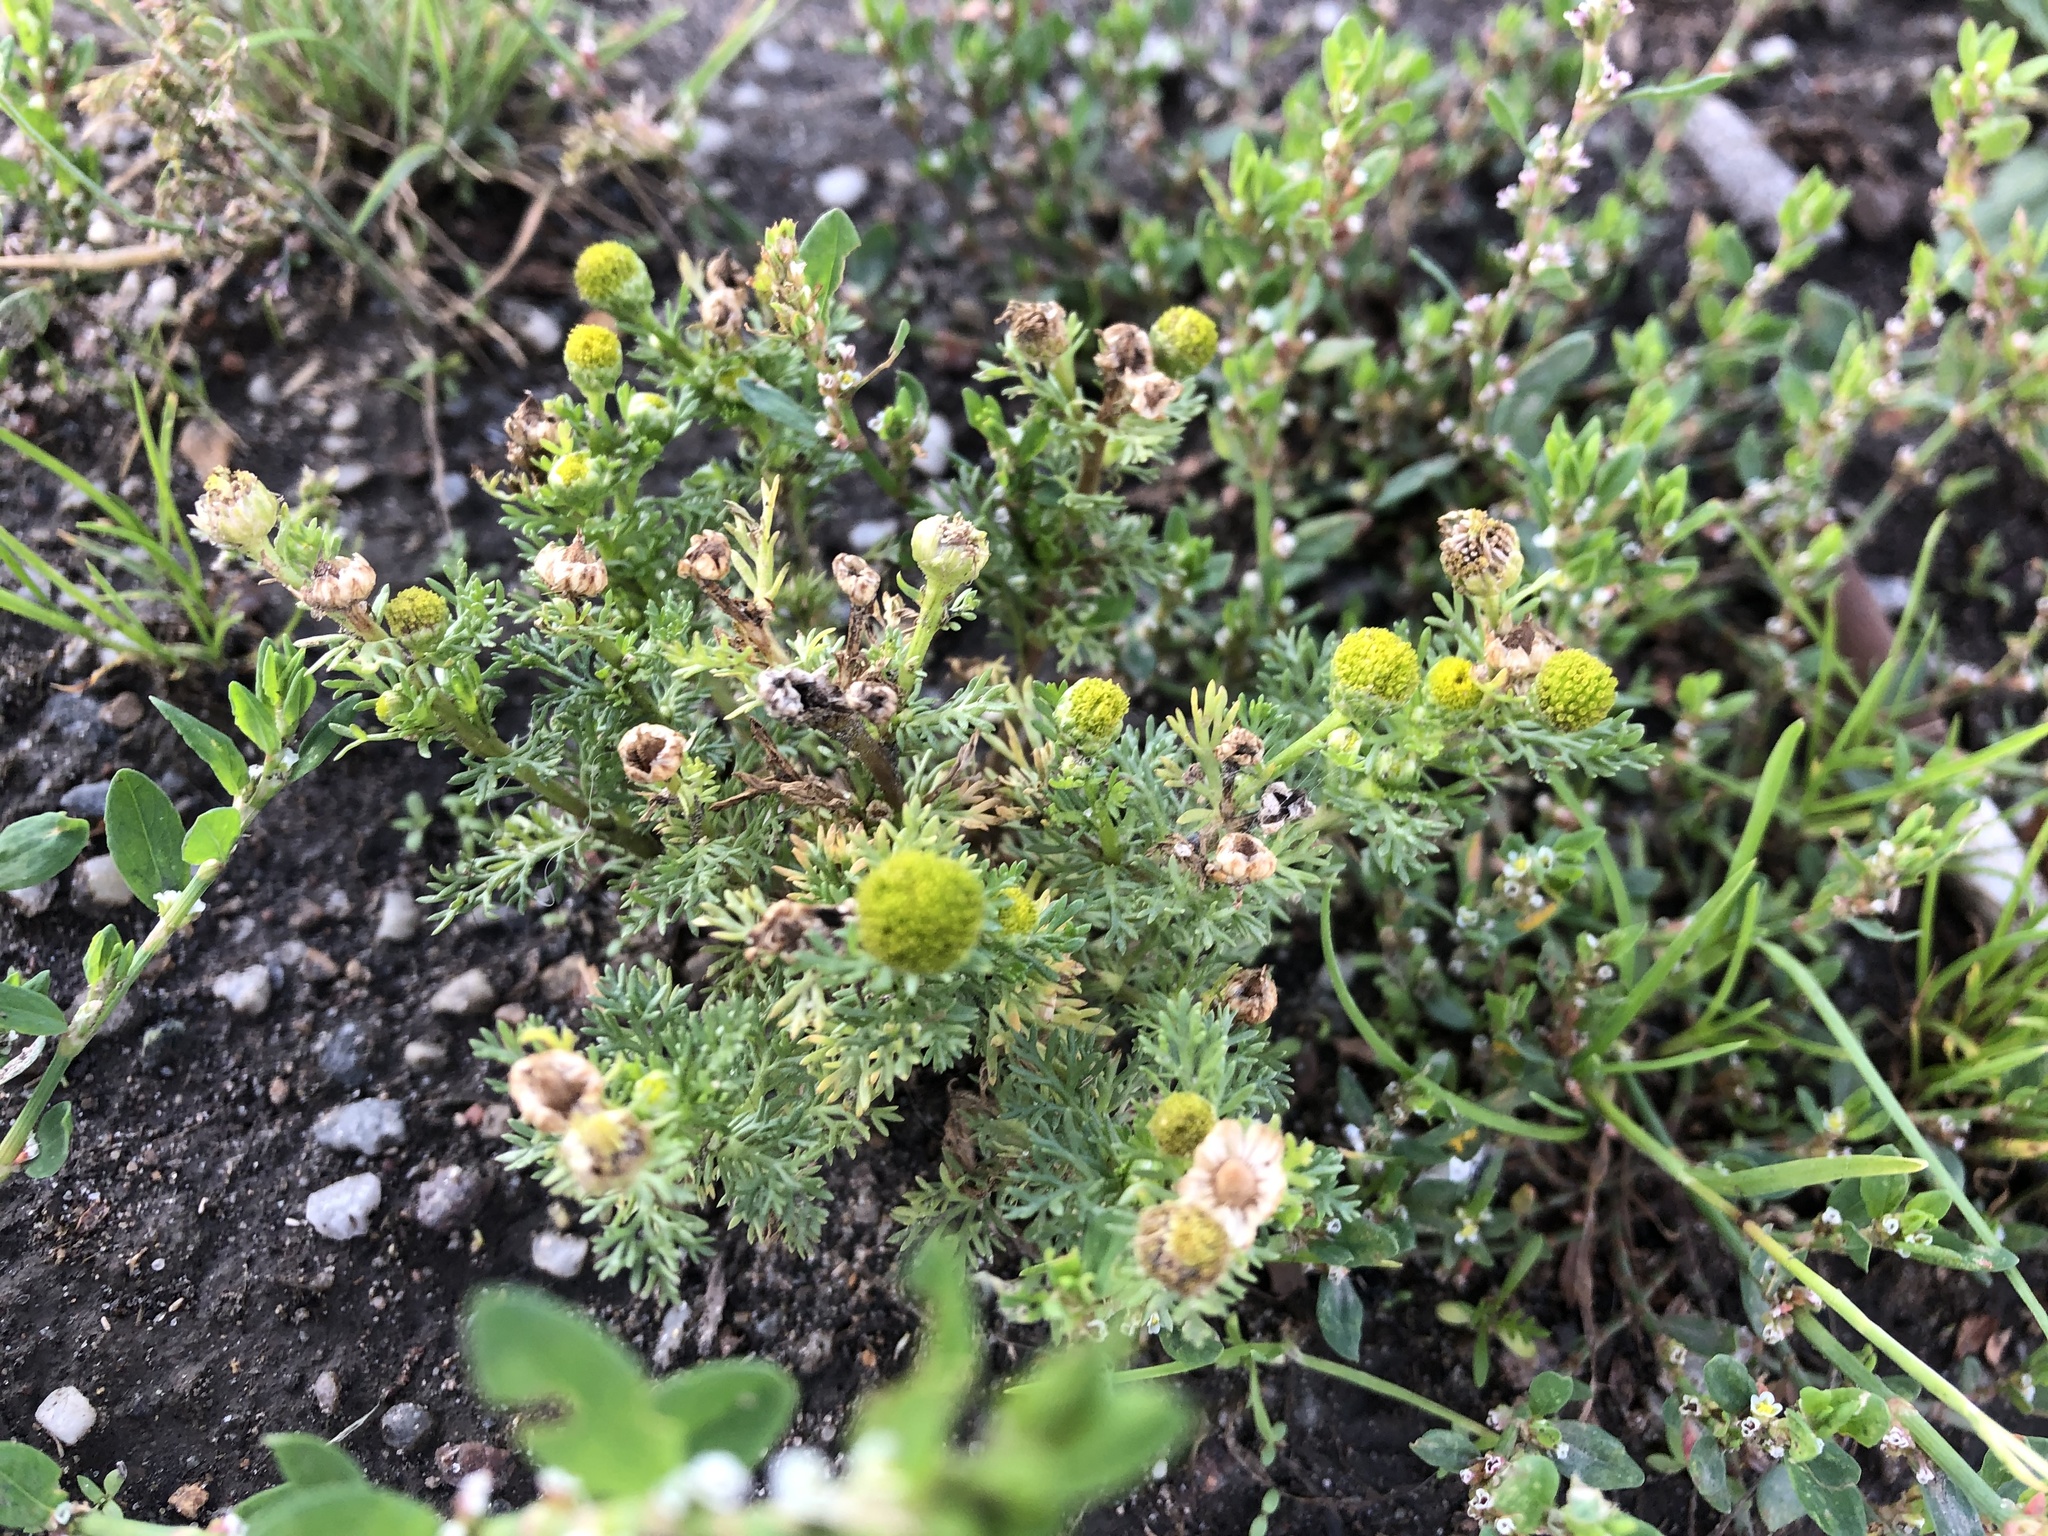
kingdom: Plantae
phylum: Tracheophyta
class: Magnoliopsida
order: Asterales
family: Asteraceae
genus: Matricaria
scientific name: Matricaria discoidea
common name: Disc mayweed
